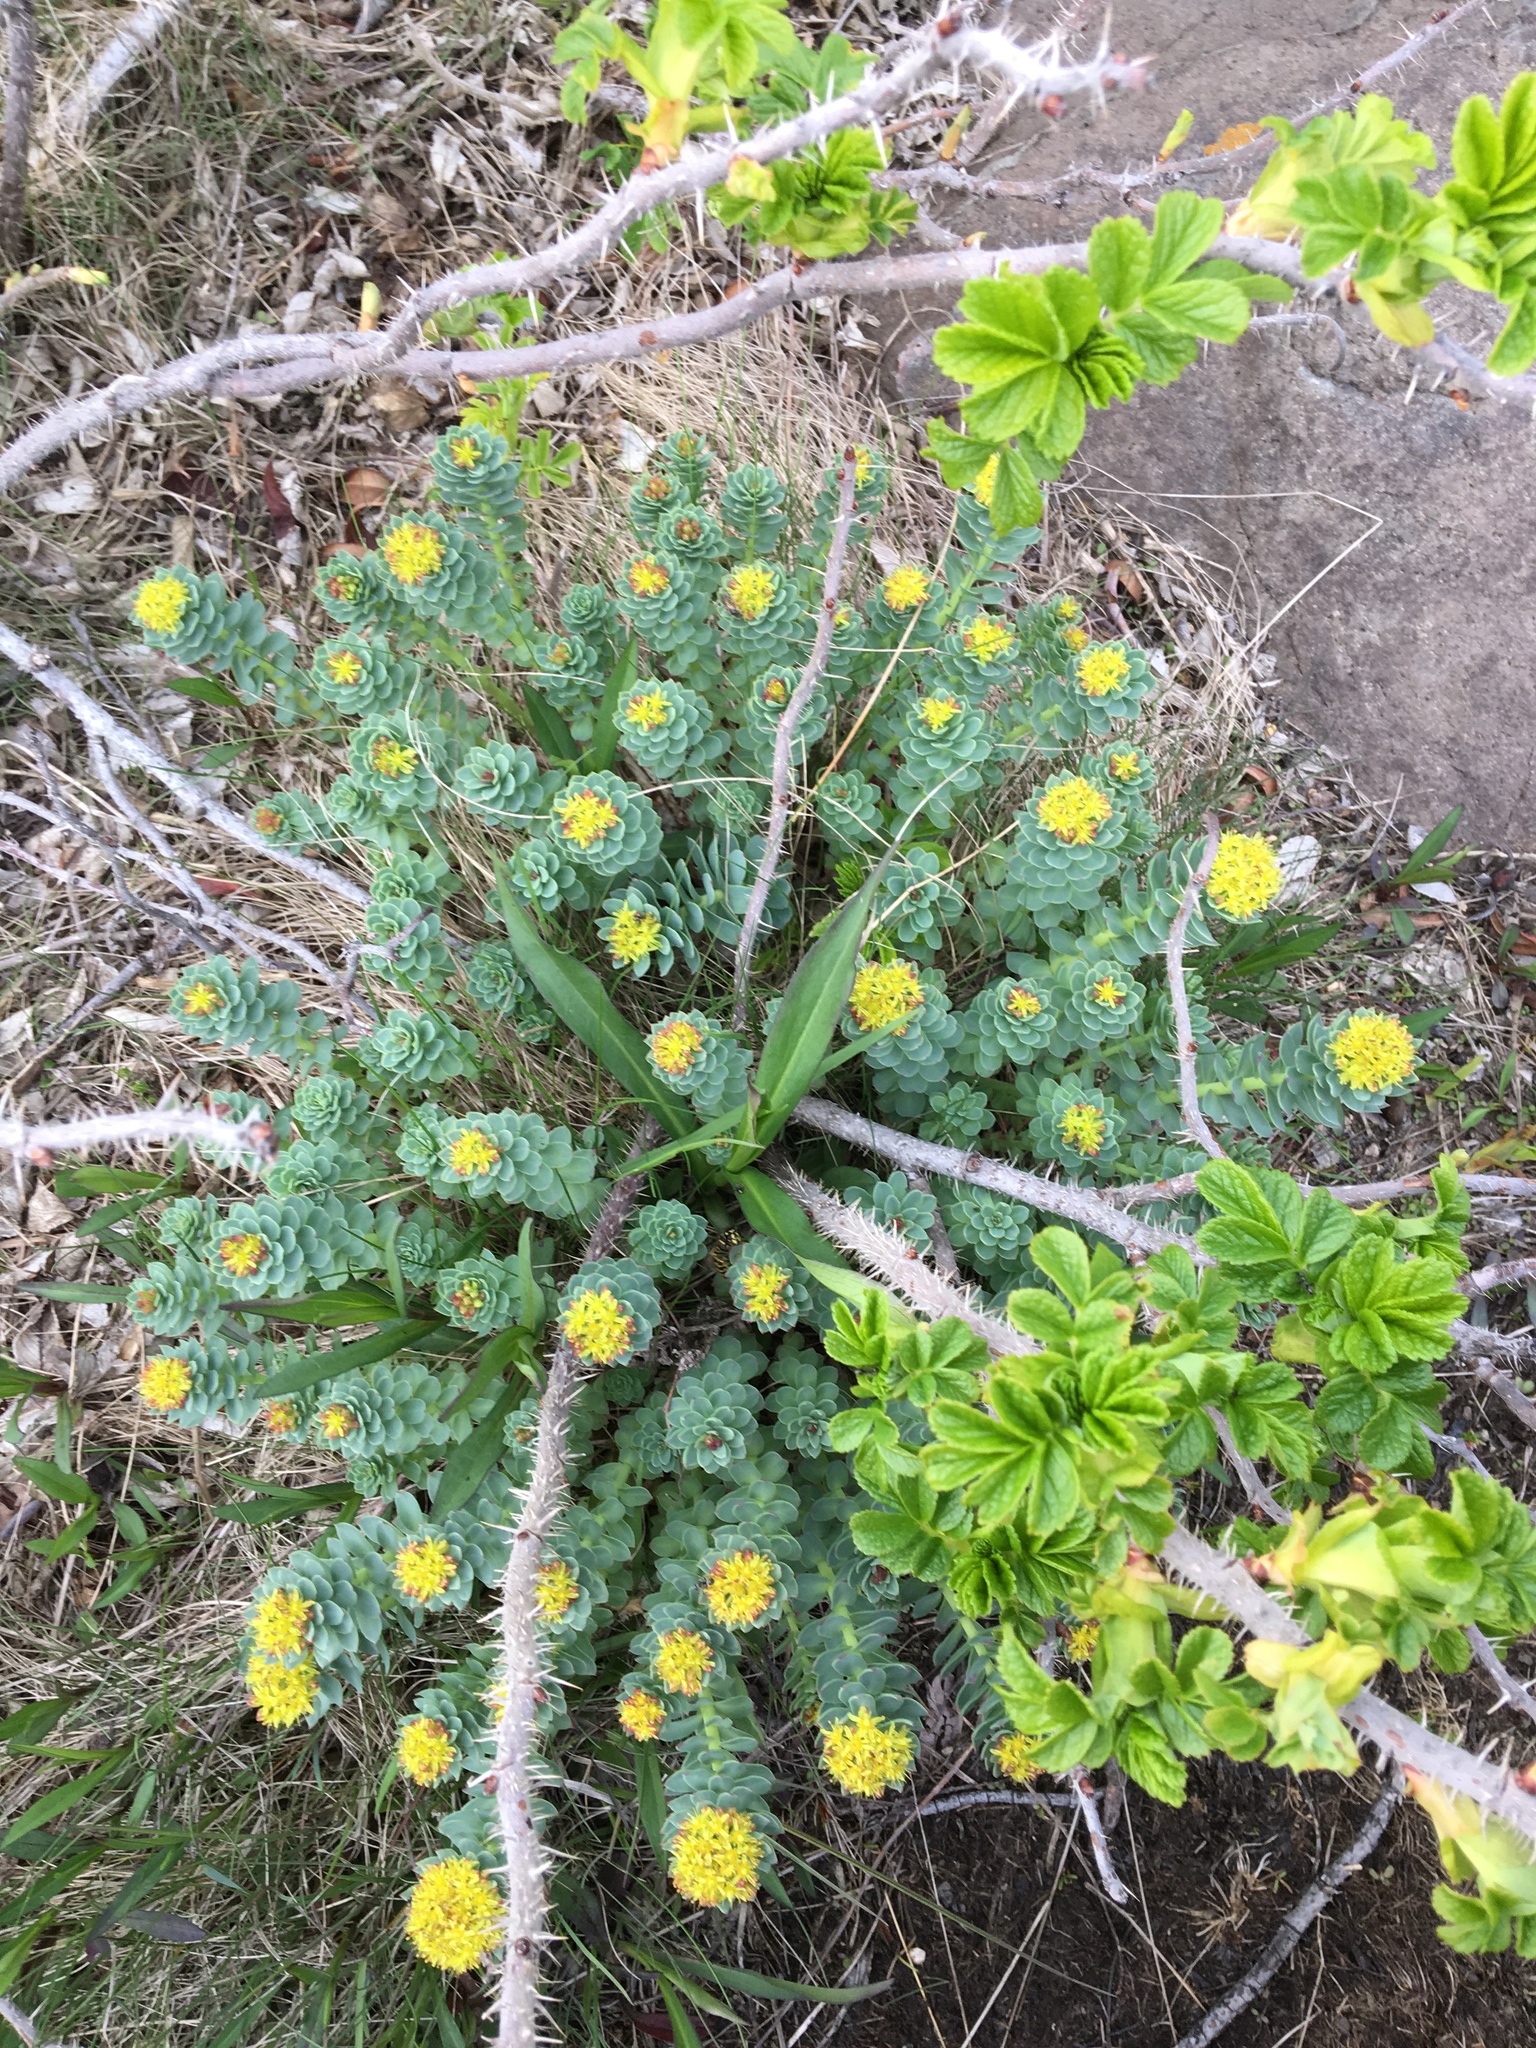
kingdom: Plantae
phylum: Tracheophyta
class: Magnoliopsida
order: Saxifragales
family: Crassulaceae
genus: Rhodiola
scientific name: Rhodiola rosea
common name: Roseroot
